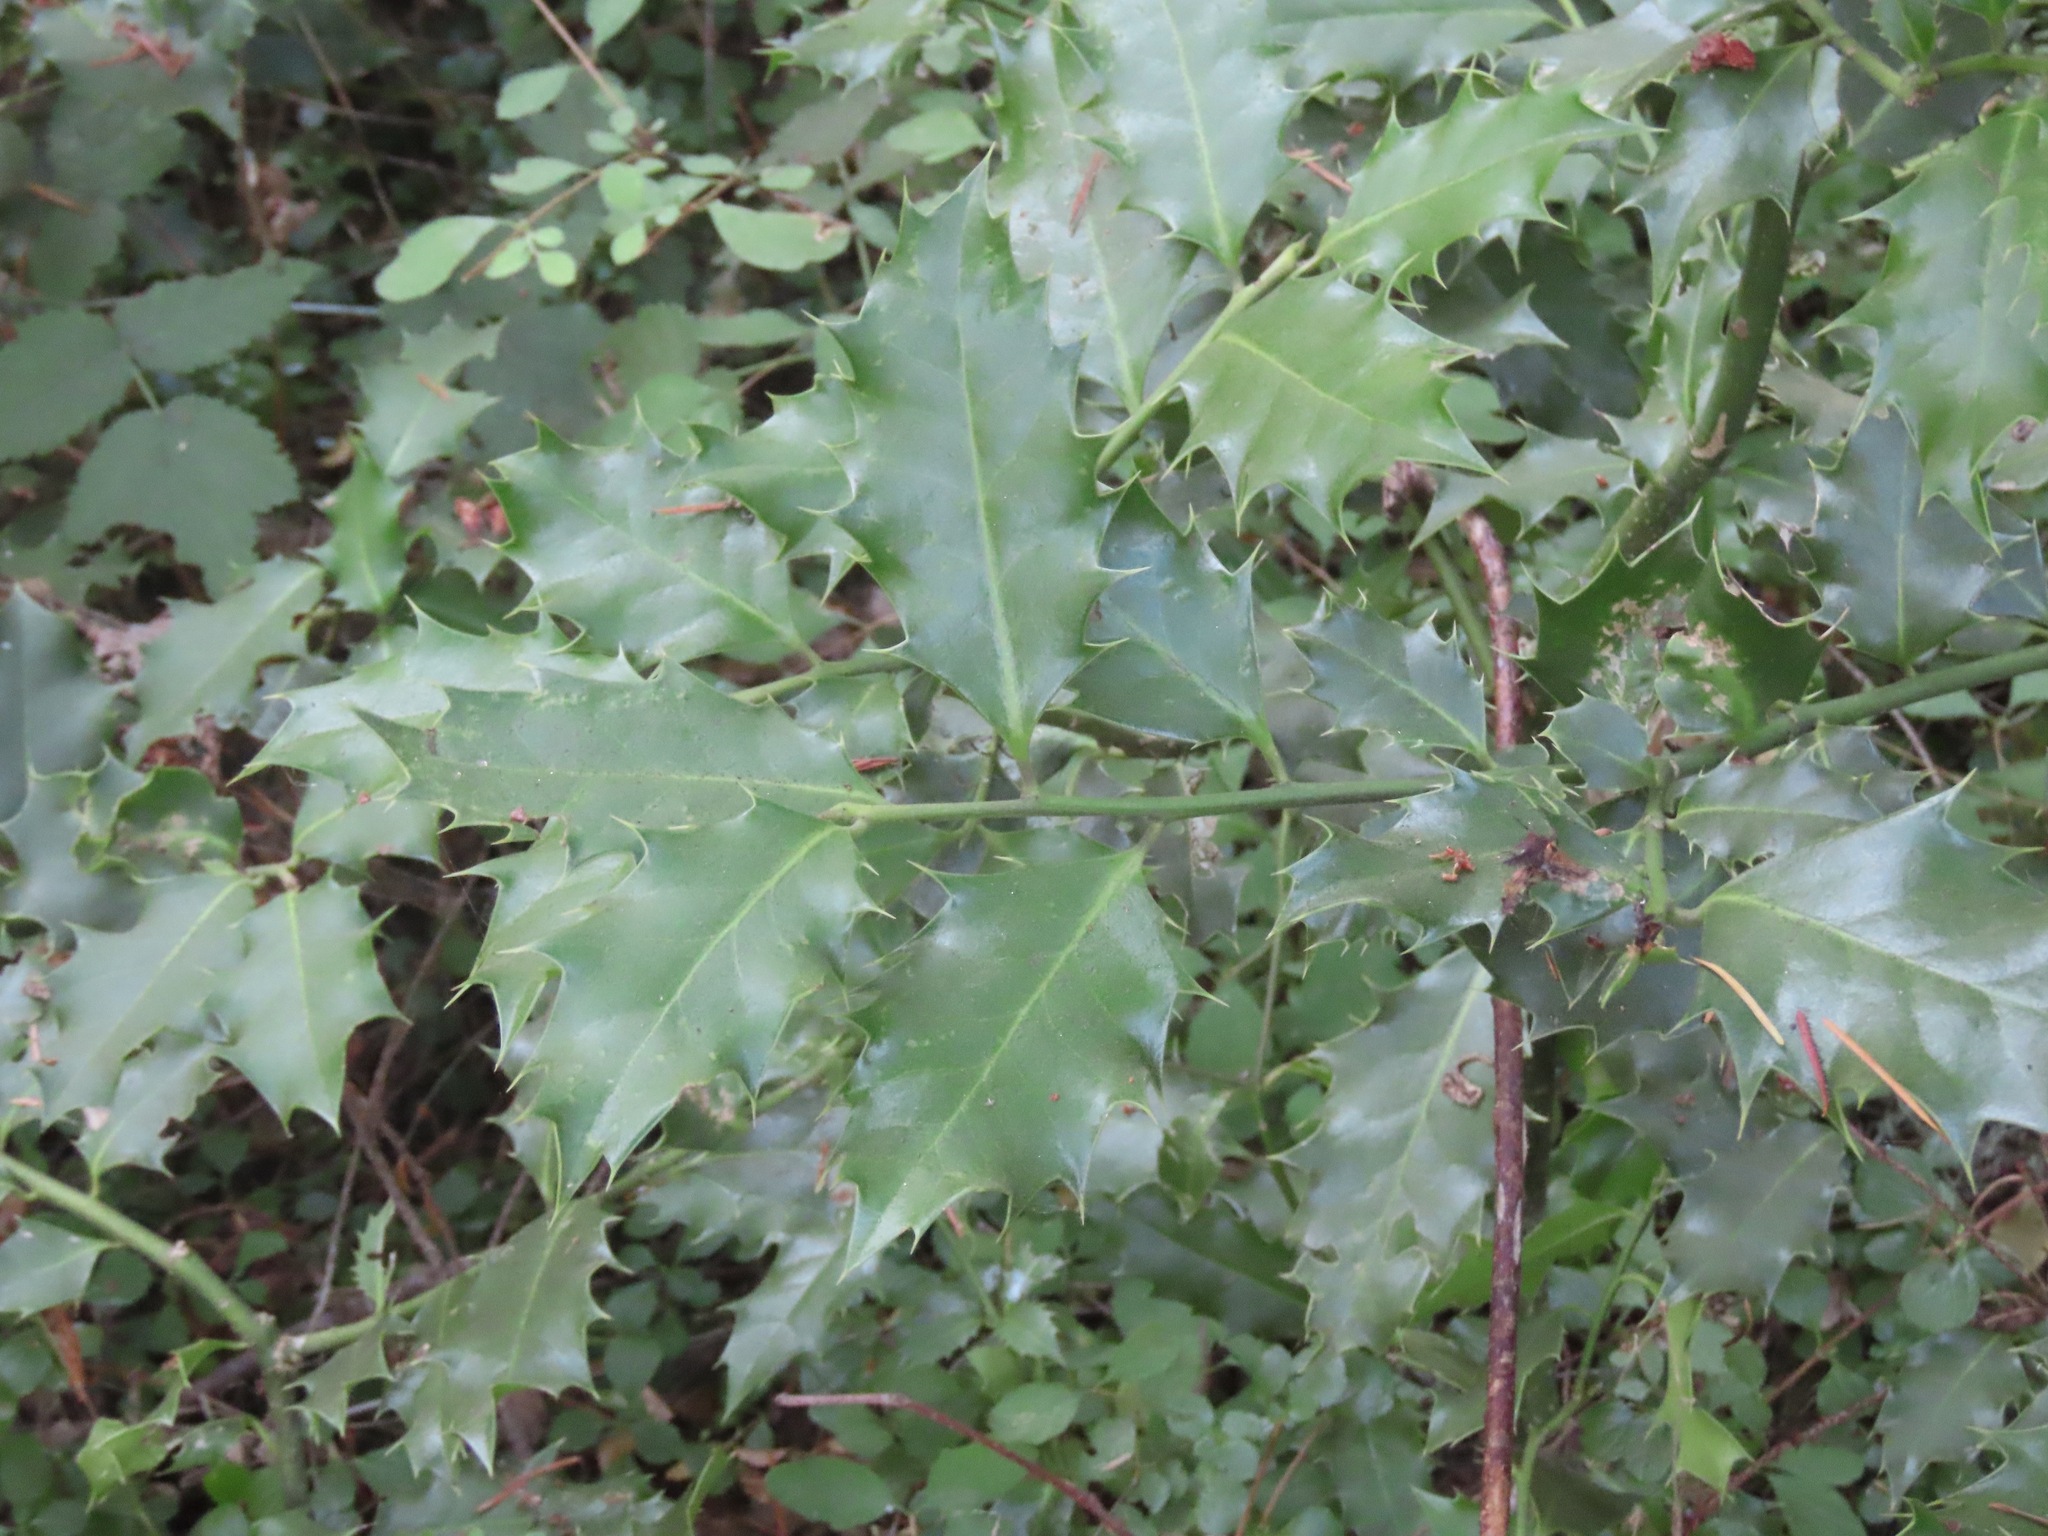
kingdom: Plantae
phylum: Tracheophyta
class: Magnoliopsida
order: Aquifoliales
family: Aquifoliaceae
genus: Ilex
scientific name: Ilex aquifolium
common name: English holly
